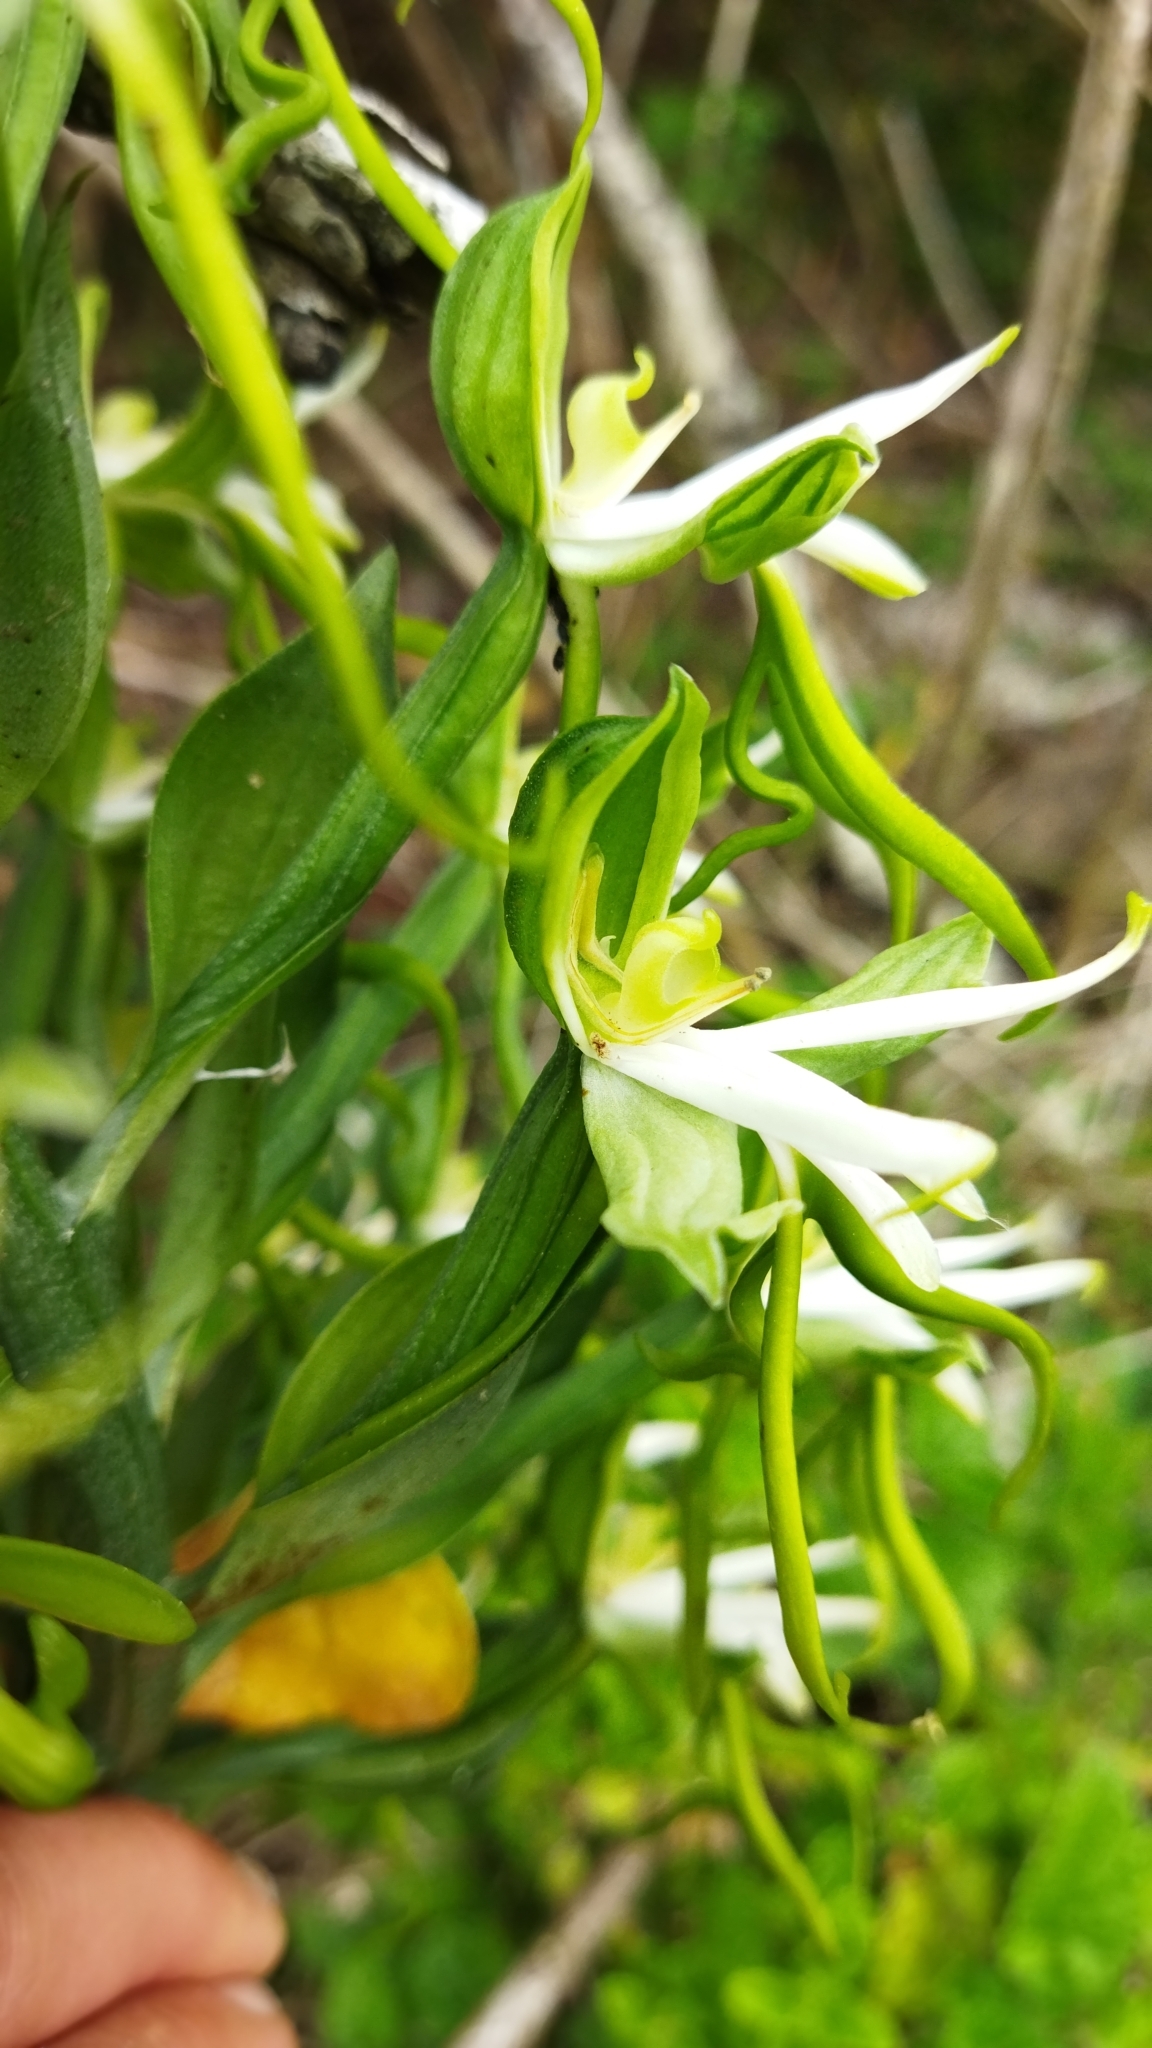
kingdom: Plantae
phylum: Tracheophyta
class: Liliopsida
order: Asparagales
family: Orchidaceae
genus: Bonatea
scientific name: Bonatea speciosa
